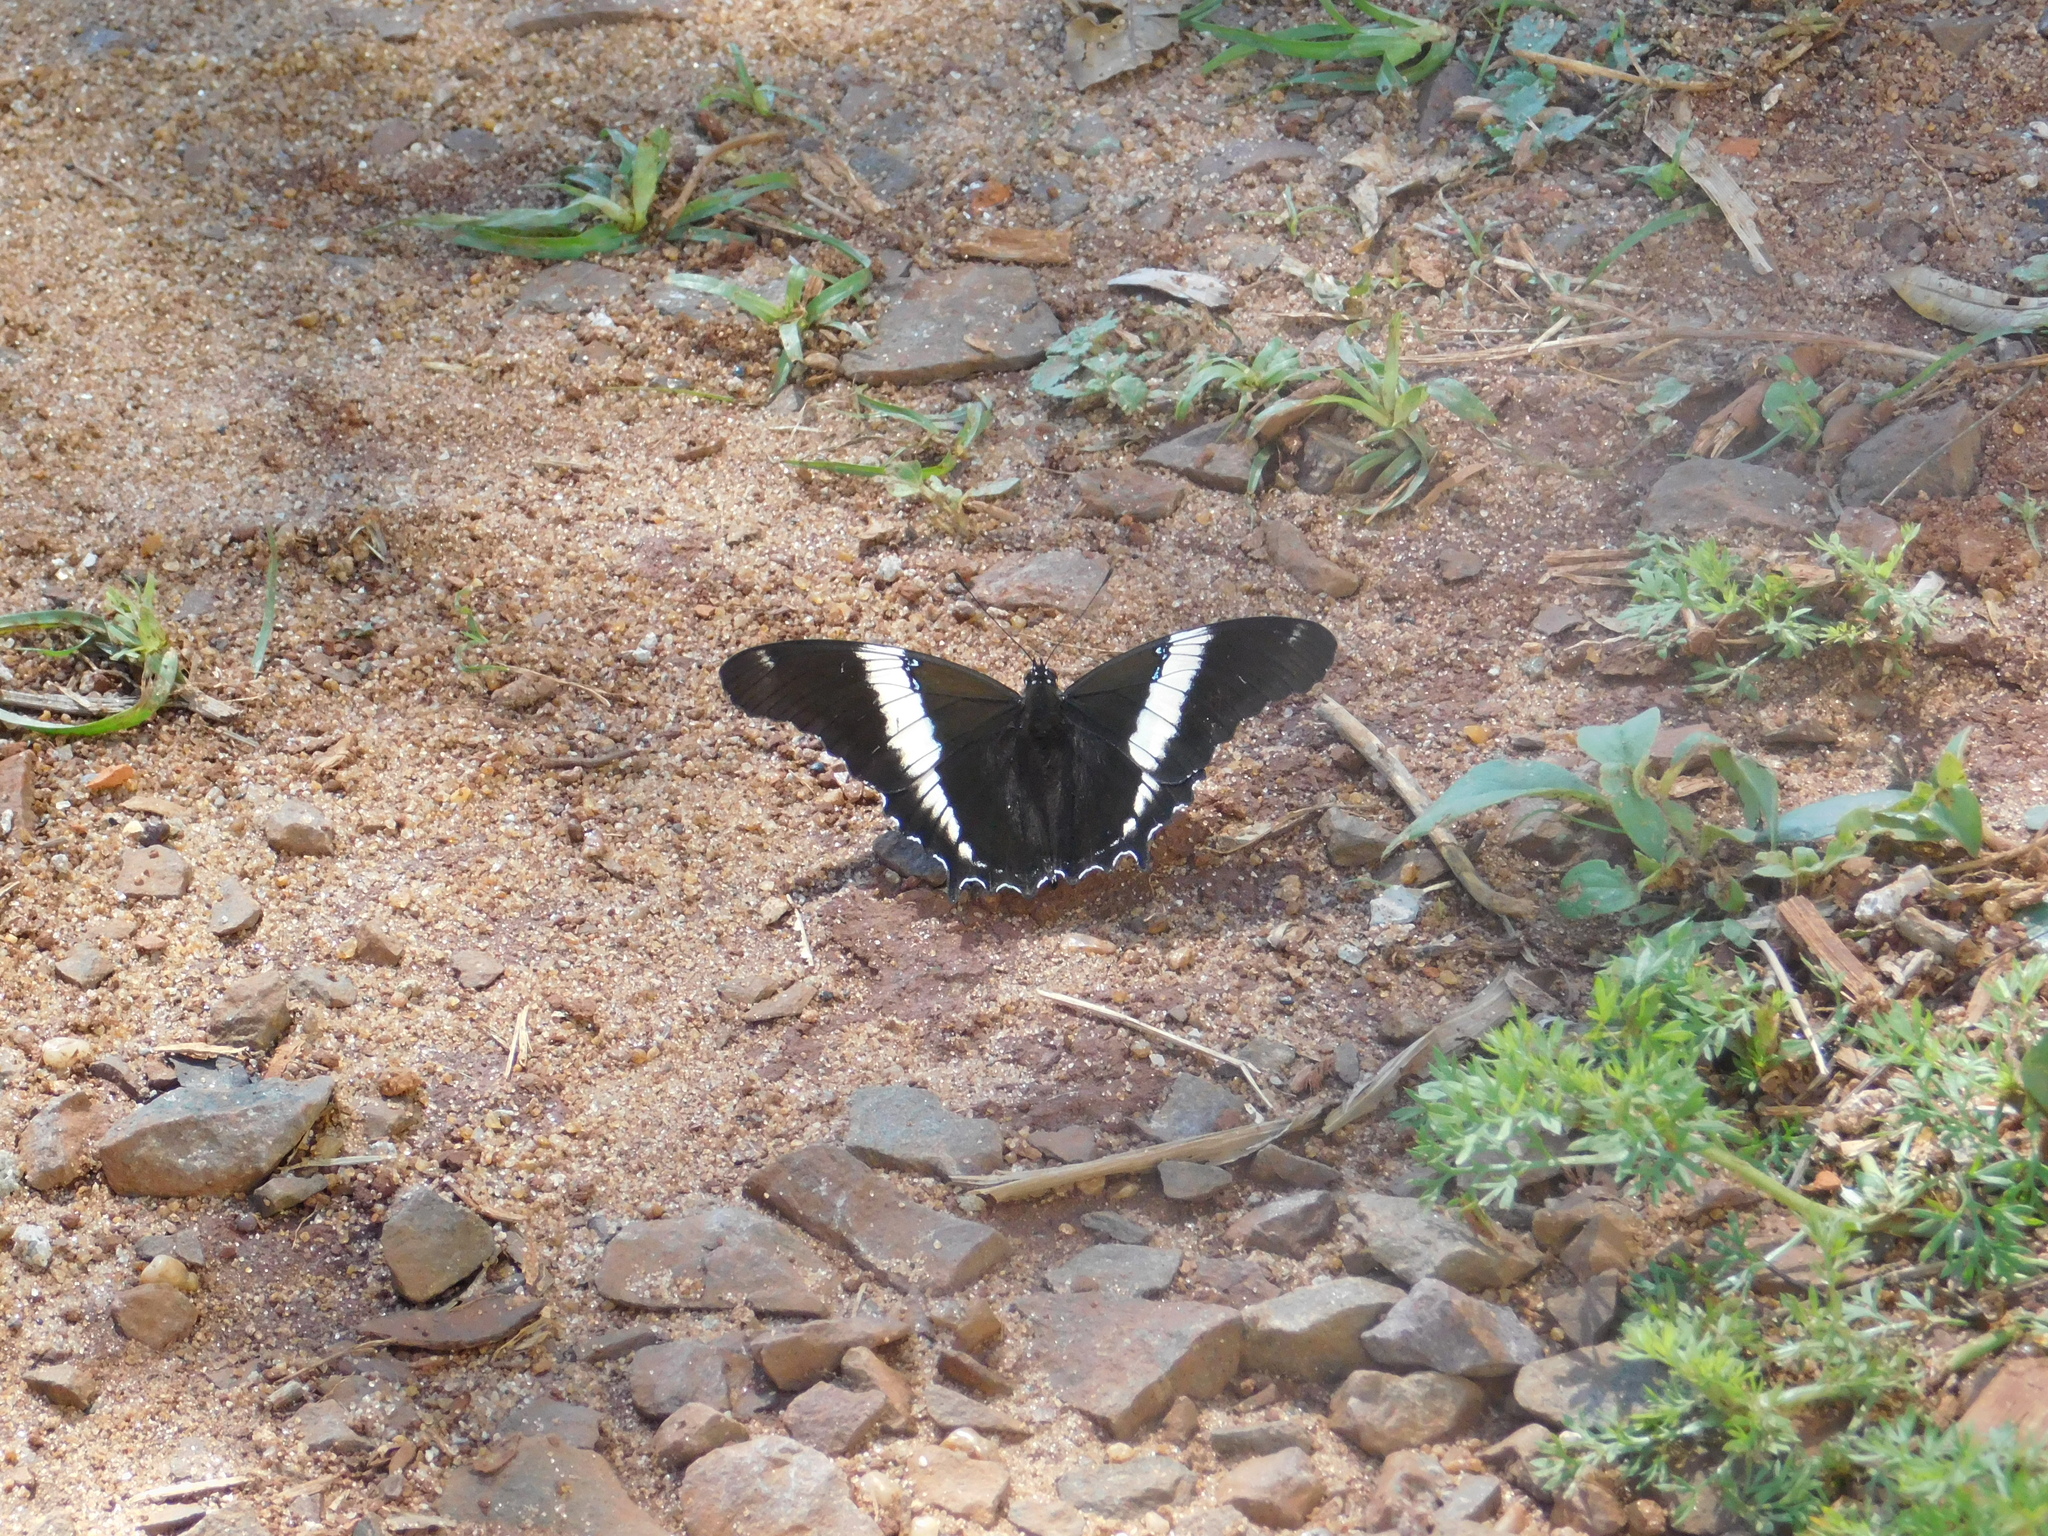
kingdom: Animalia
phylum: Arthropoda
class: Insecta
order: Lepidoptera
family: Nymphalidae
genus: Siproeta
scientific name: Siproeta epaphus
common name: Rusty-tipped page
